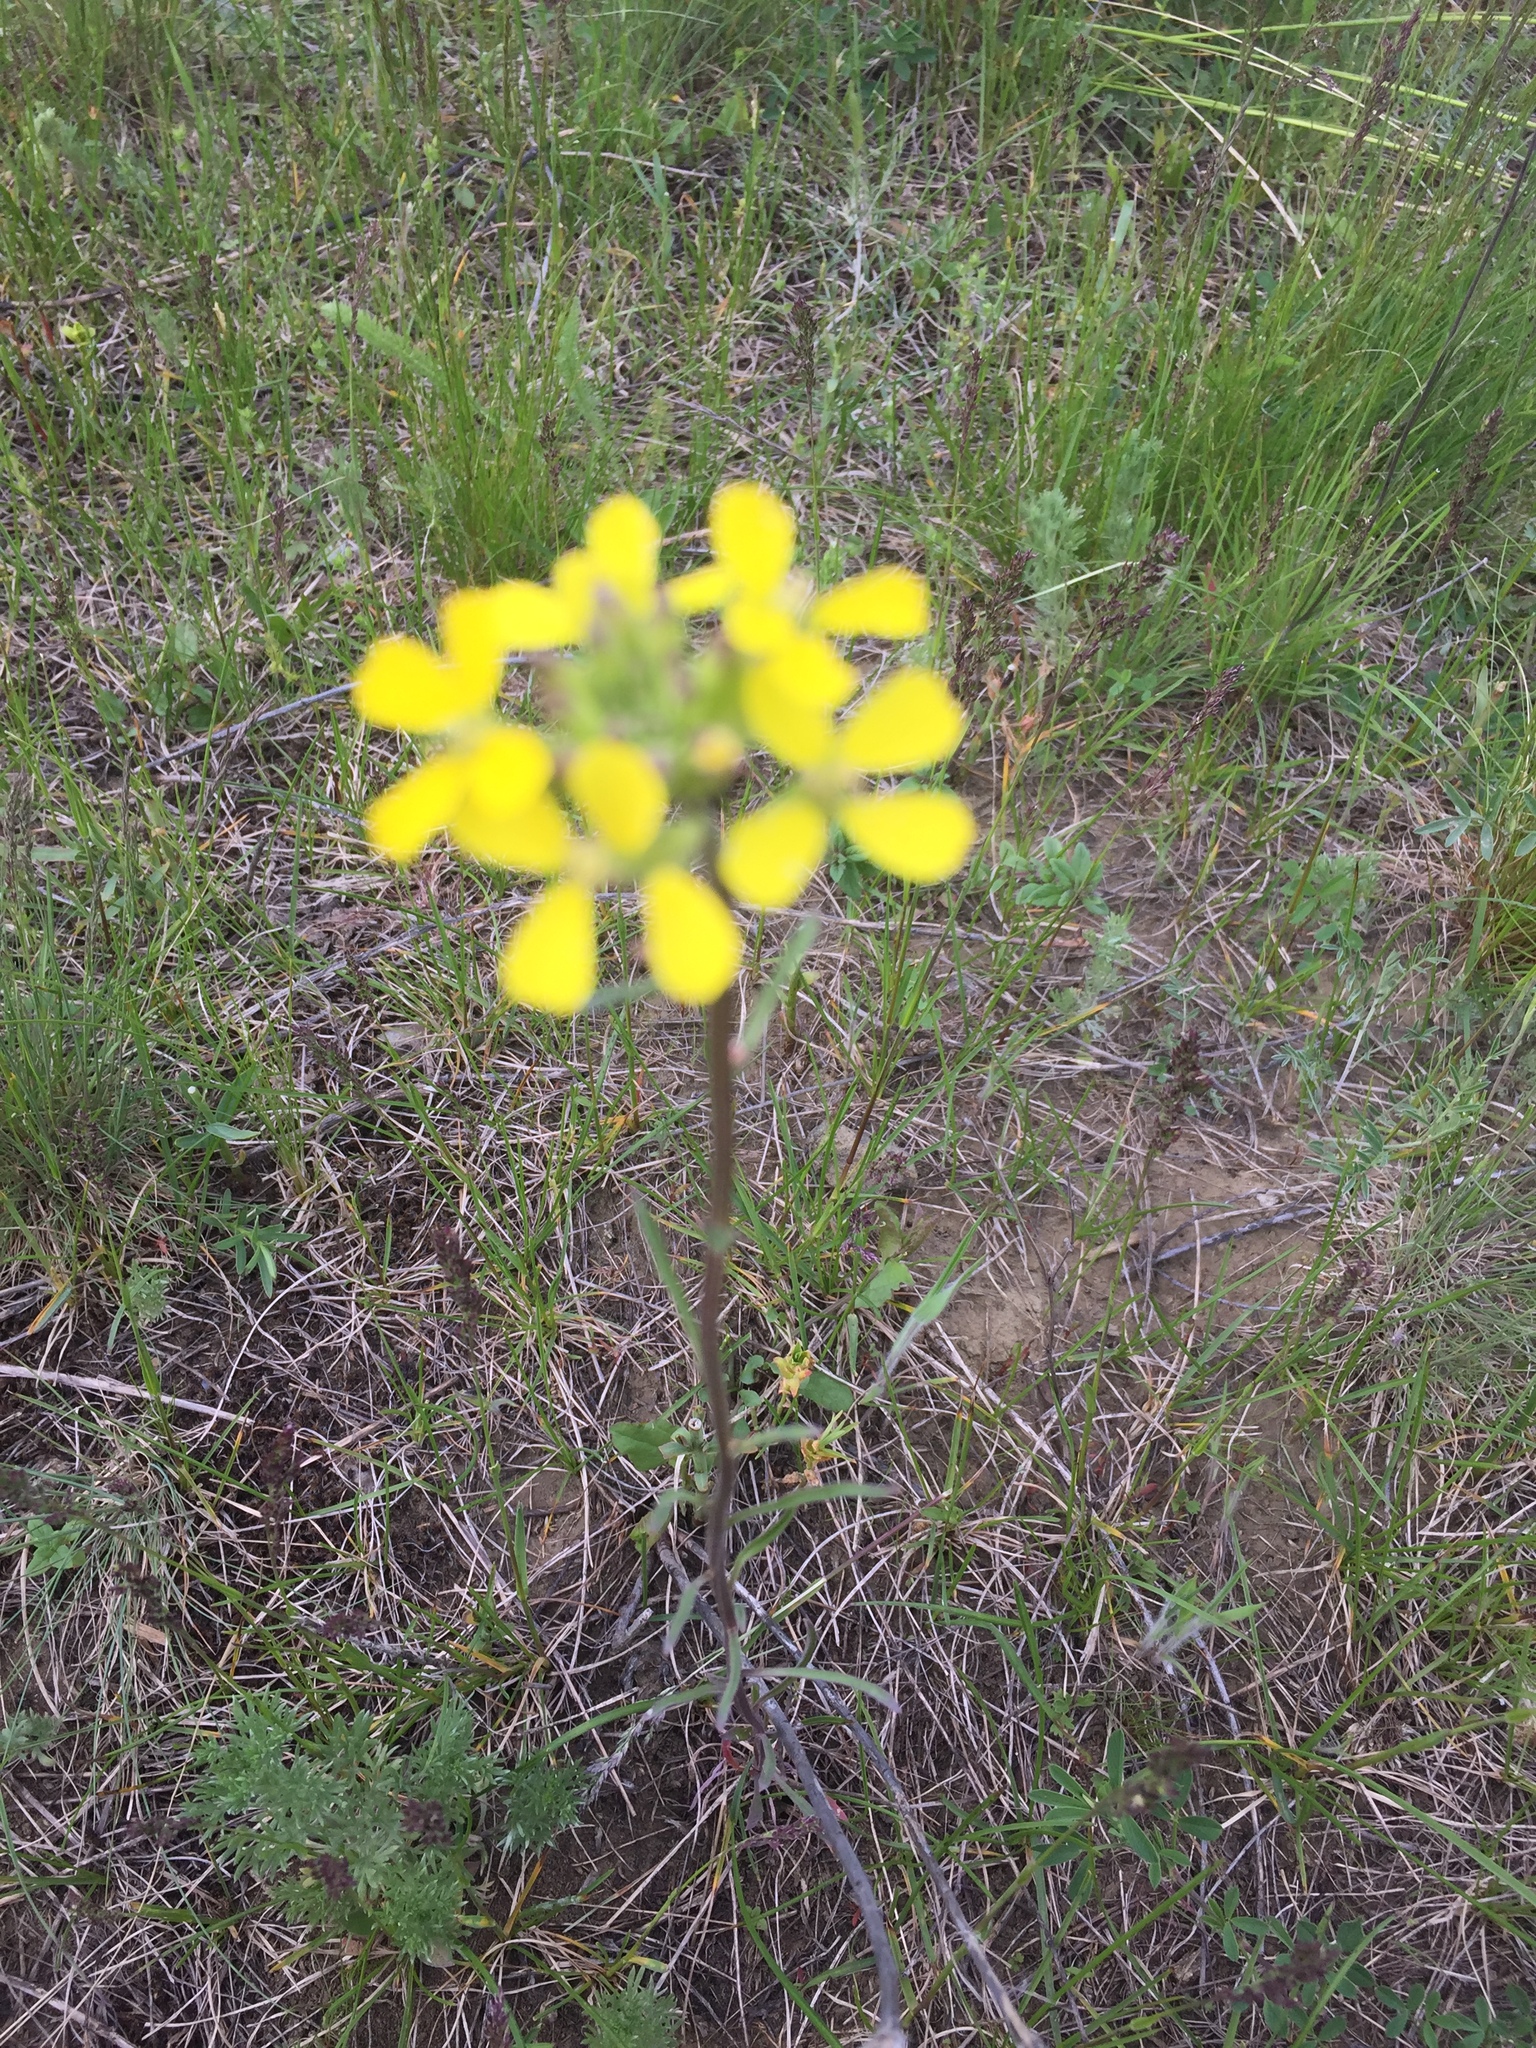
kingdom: Plantae
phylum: Tracheophyta
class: Magnoliopsida
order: Brassicales
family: Brassicaceae
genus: Erysimum
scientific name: Erysimum diffusum
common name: Diffuse wallflower
